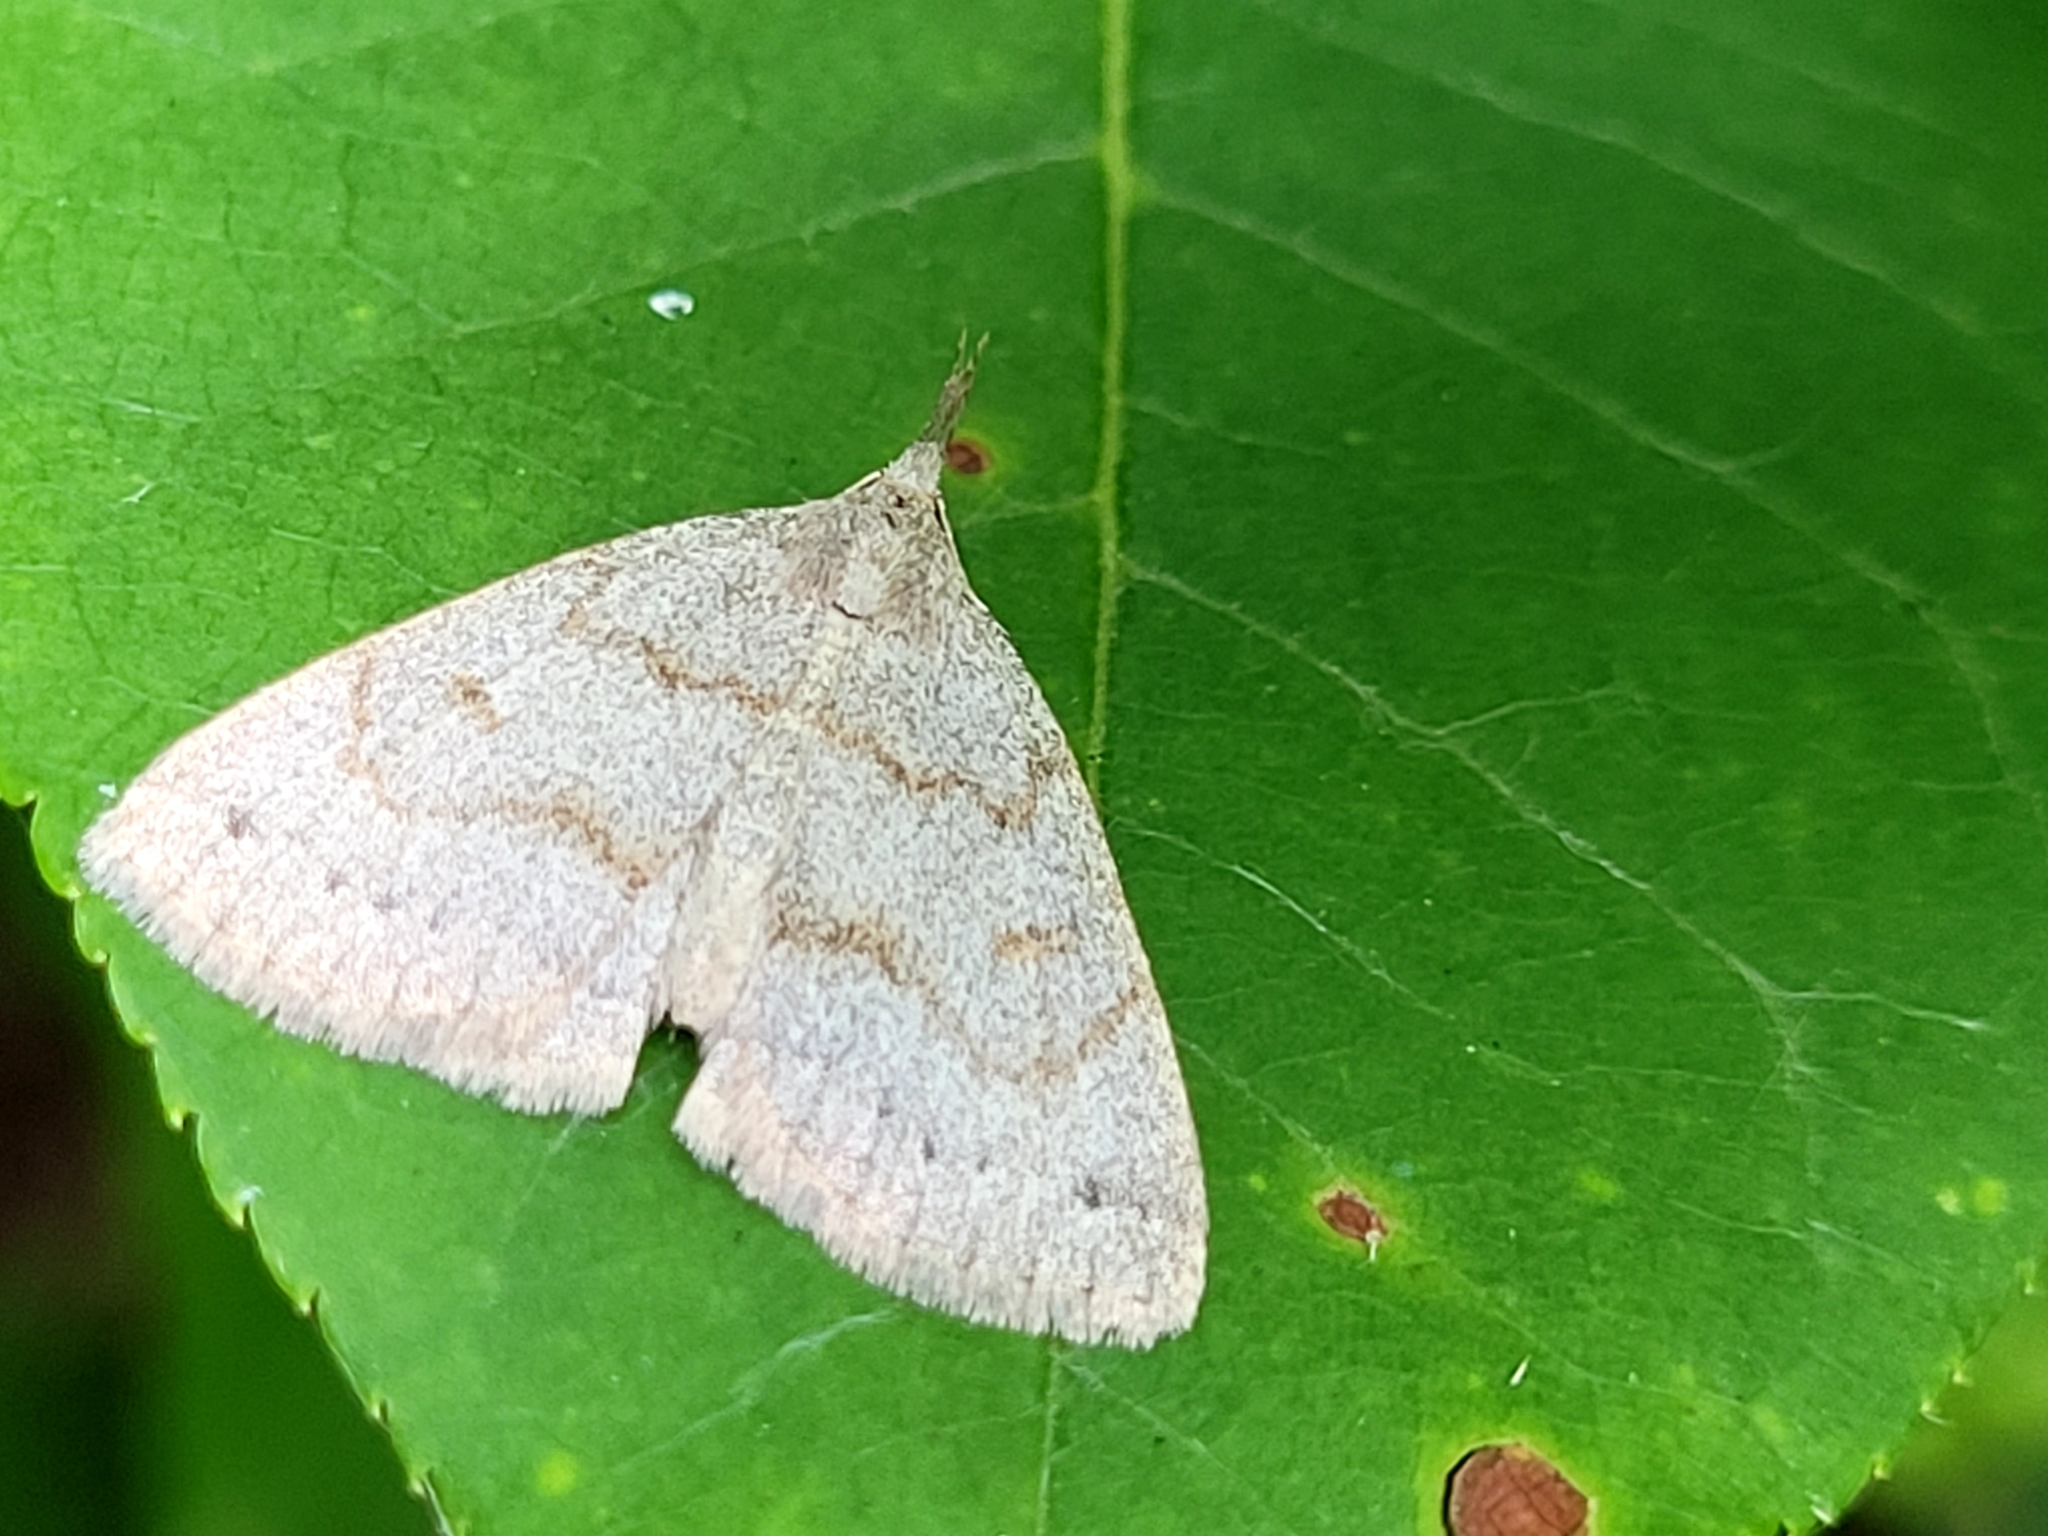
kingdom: Animalia
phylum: Arthropoda
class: Insecta
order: Lepidoptera
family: Erebidae
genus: Macrochilo
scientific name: Macrochilo morbidalis
